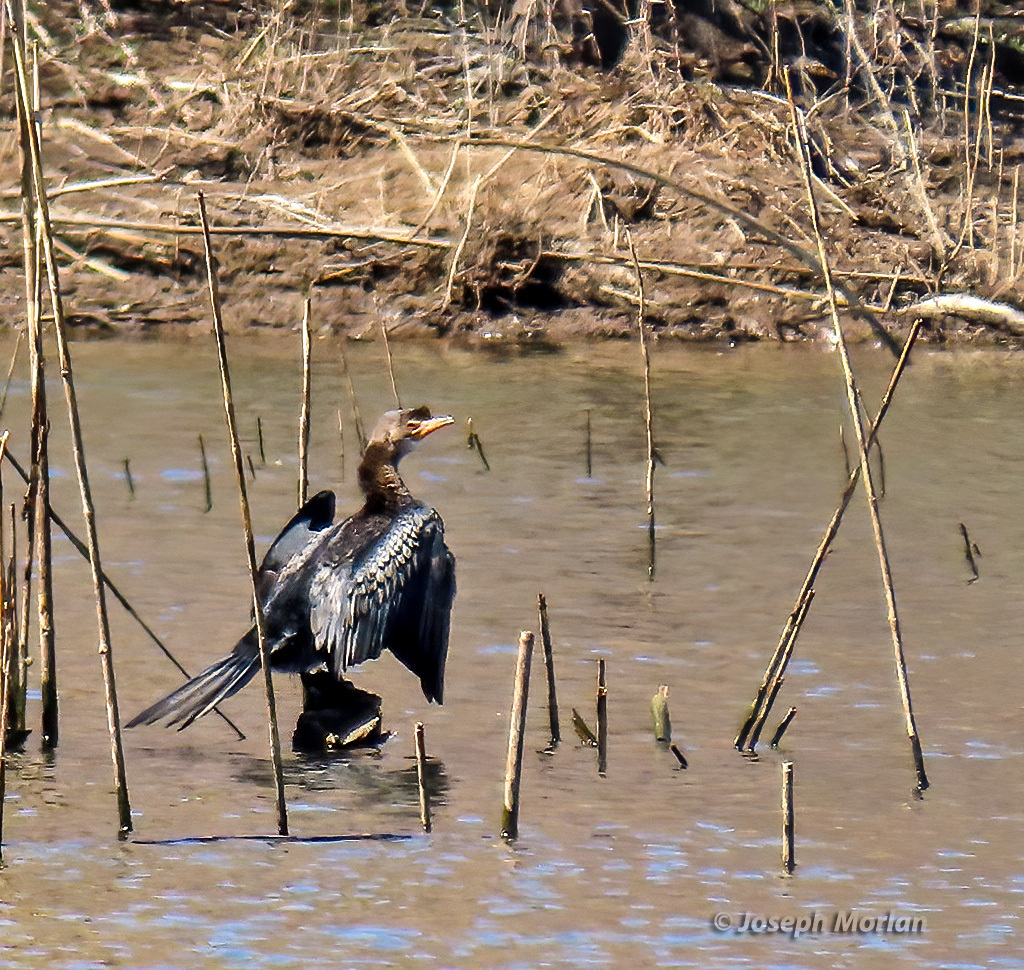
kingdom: Animalia
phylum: Chordata
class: Aves
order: Suliformes
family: Phalacrocoracidae
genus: Microcarbo
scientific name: Microcarbo africanus
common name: Long-tailed cormorant
